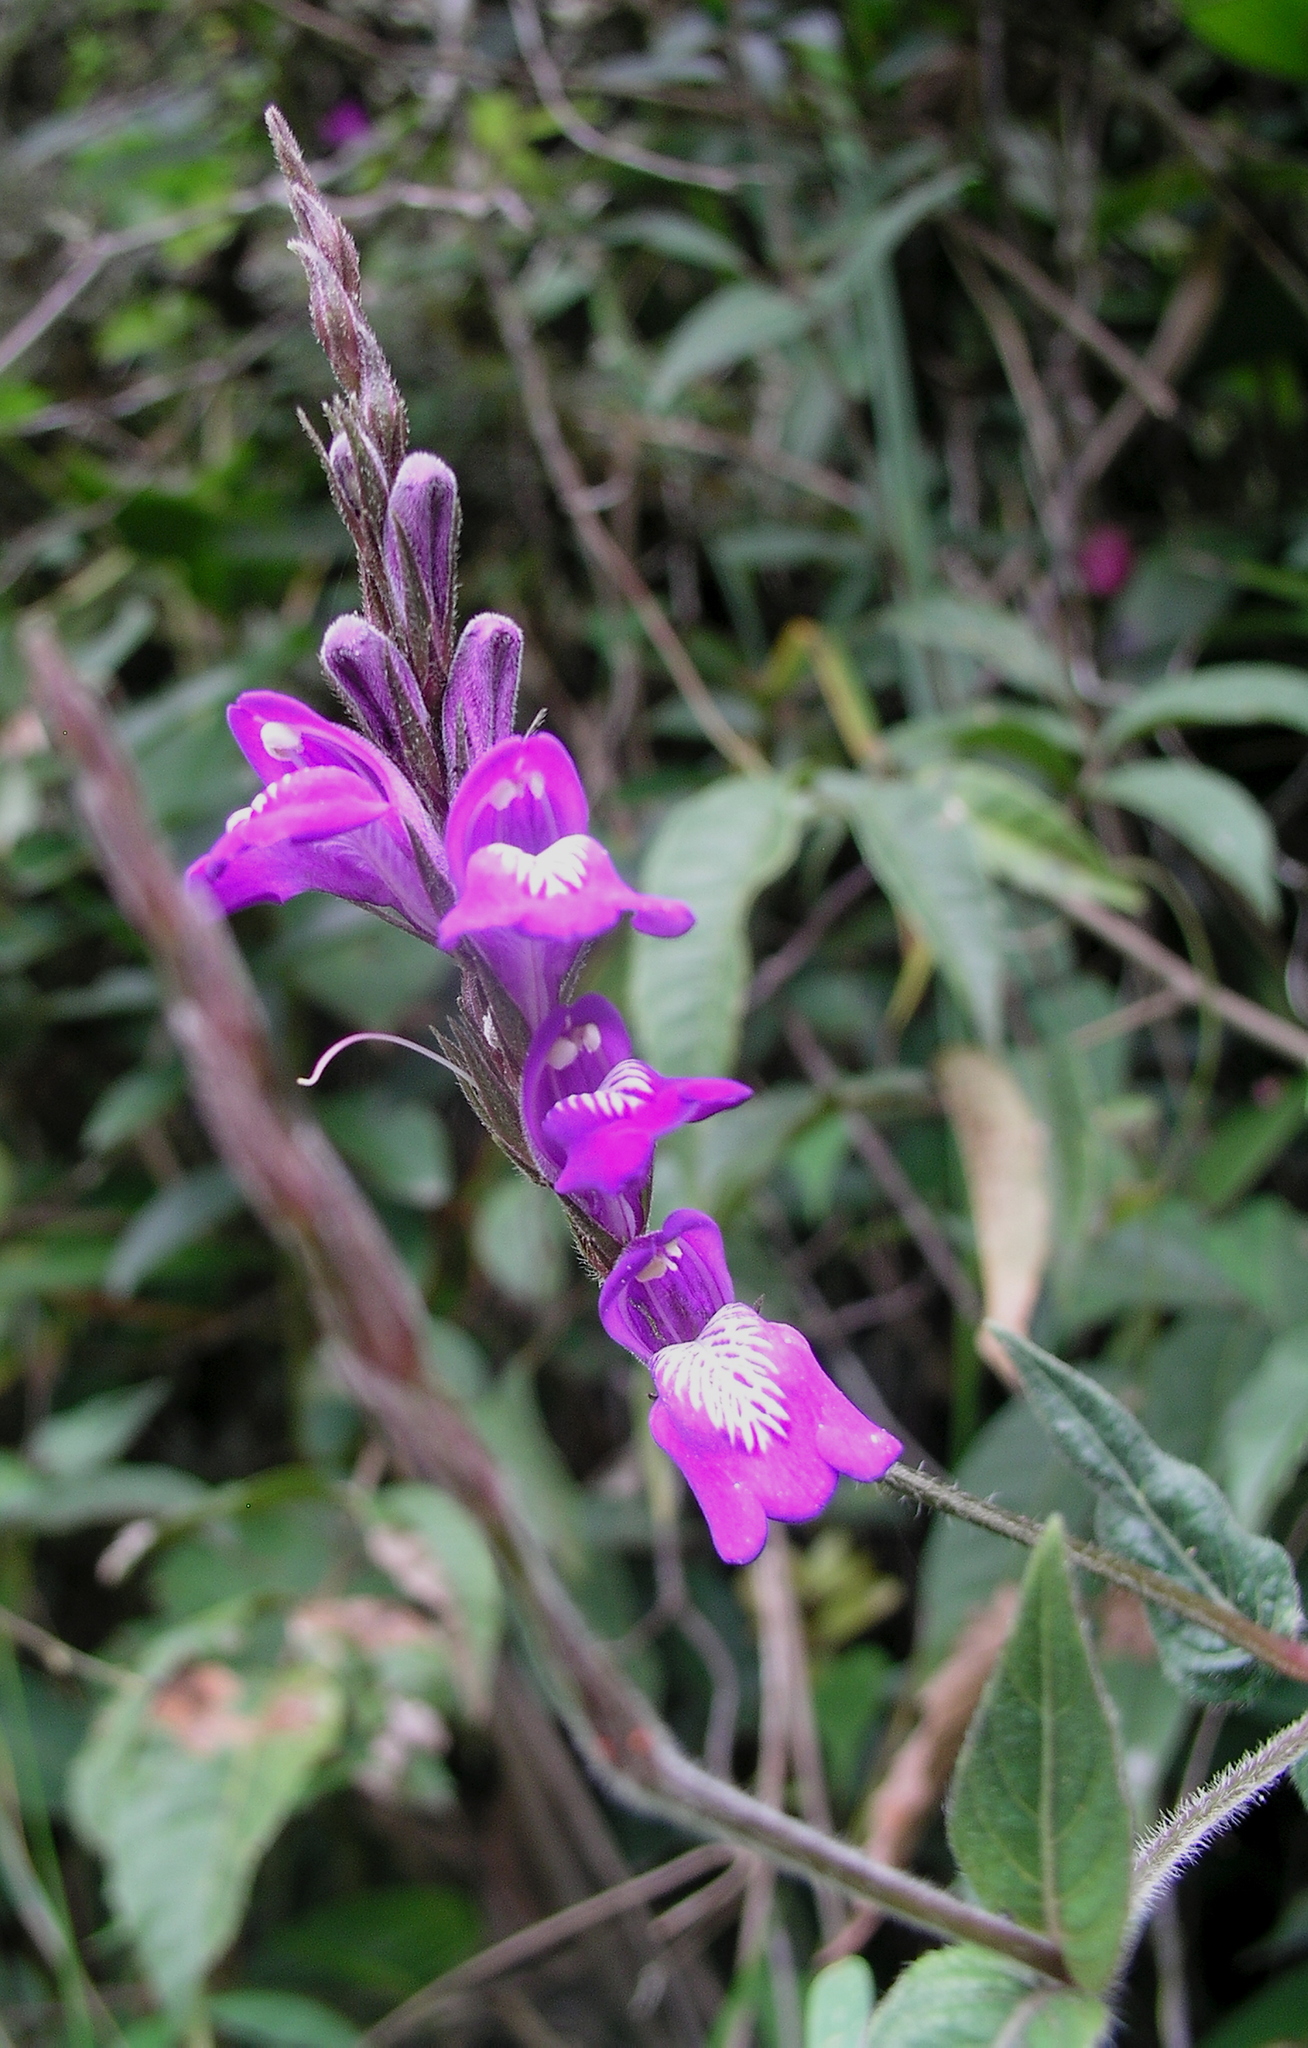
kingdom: Plantae
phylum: Tracheophyta
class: Magnoliopsida
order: Lamiales
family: Acanthaceae
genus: Justicia
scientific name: Justicia alpina
